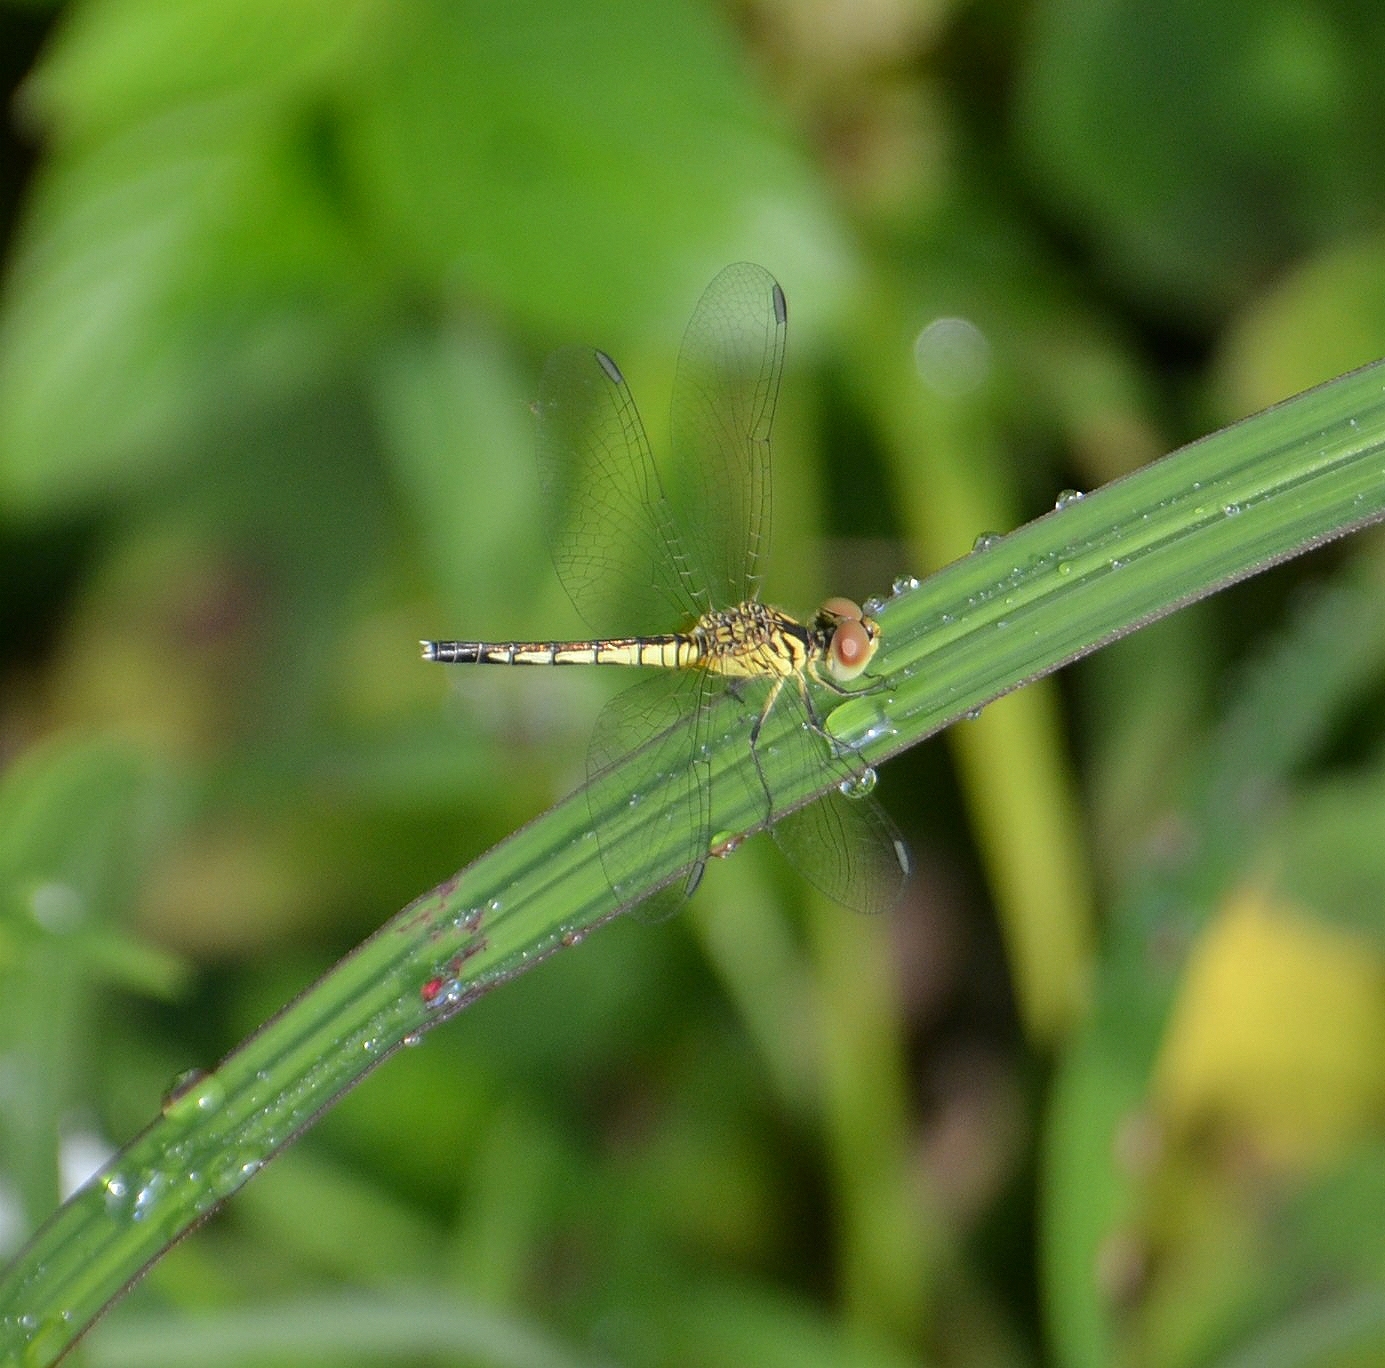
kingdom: Animalia
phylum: Arthropoda
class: Insecta
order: Odonata
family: Libellulidae
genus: Diplacodes
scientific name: Diplacodes nebulosa
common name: Black-tipped percher
